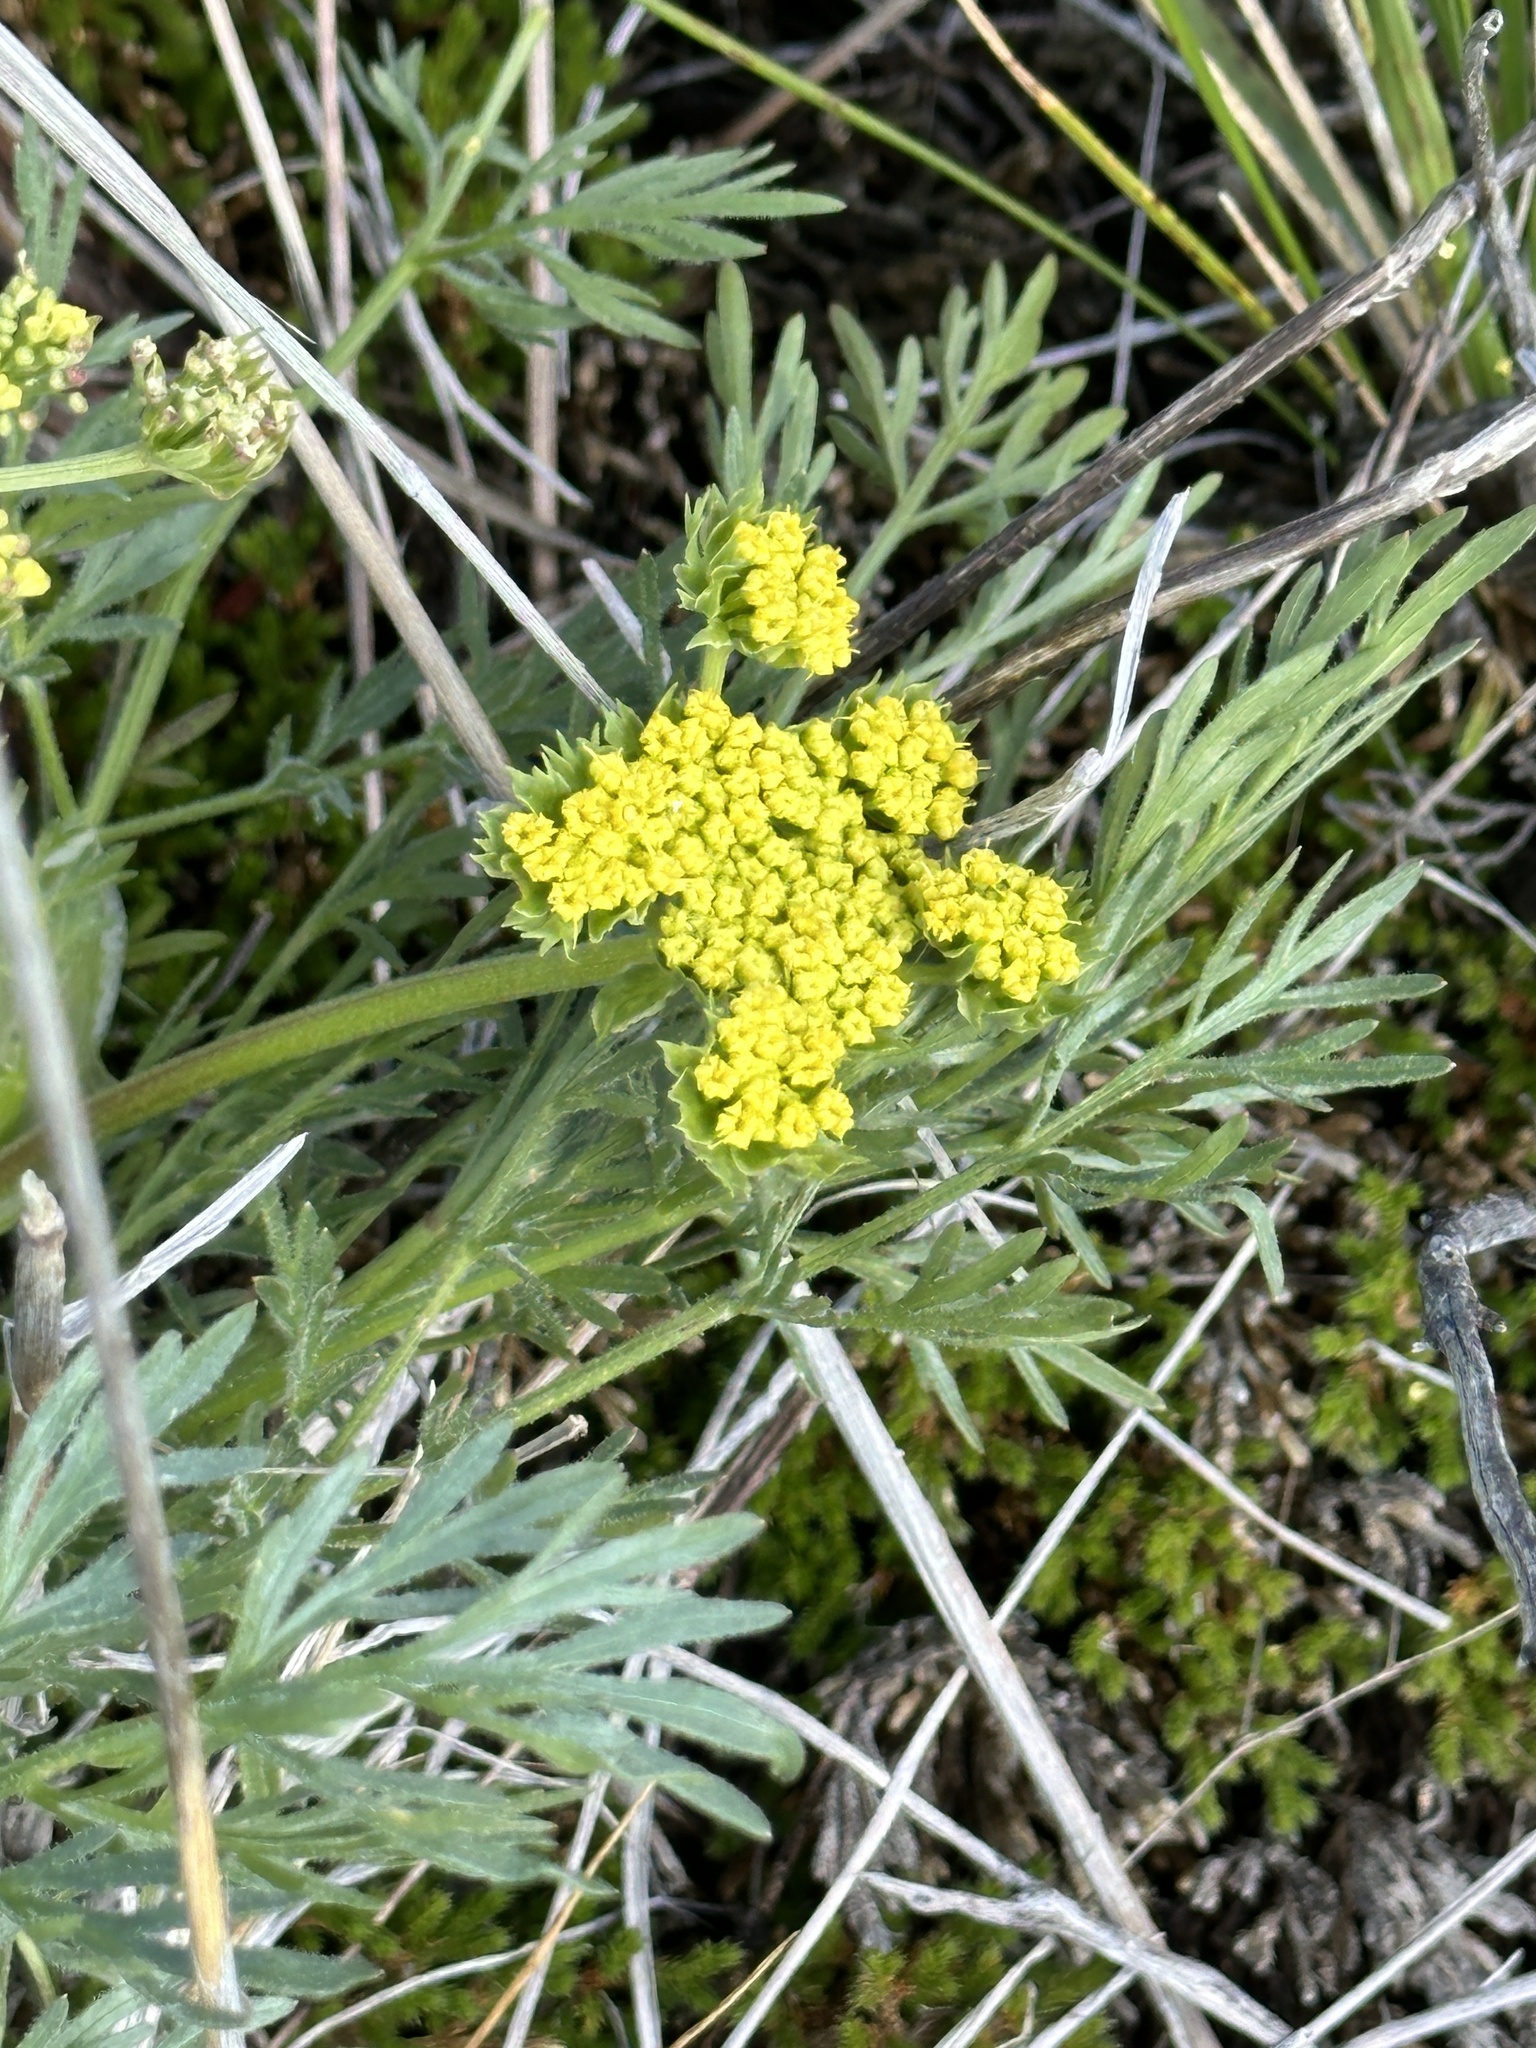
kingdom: Plantae
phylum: Tracheophyta
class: Magnoliopsida
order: Apiales
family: Apiaceae
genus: Lomatium
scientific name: Lomatium utriculatum
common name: Fine-leaf desert-parsley
